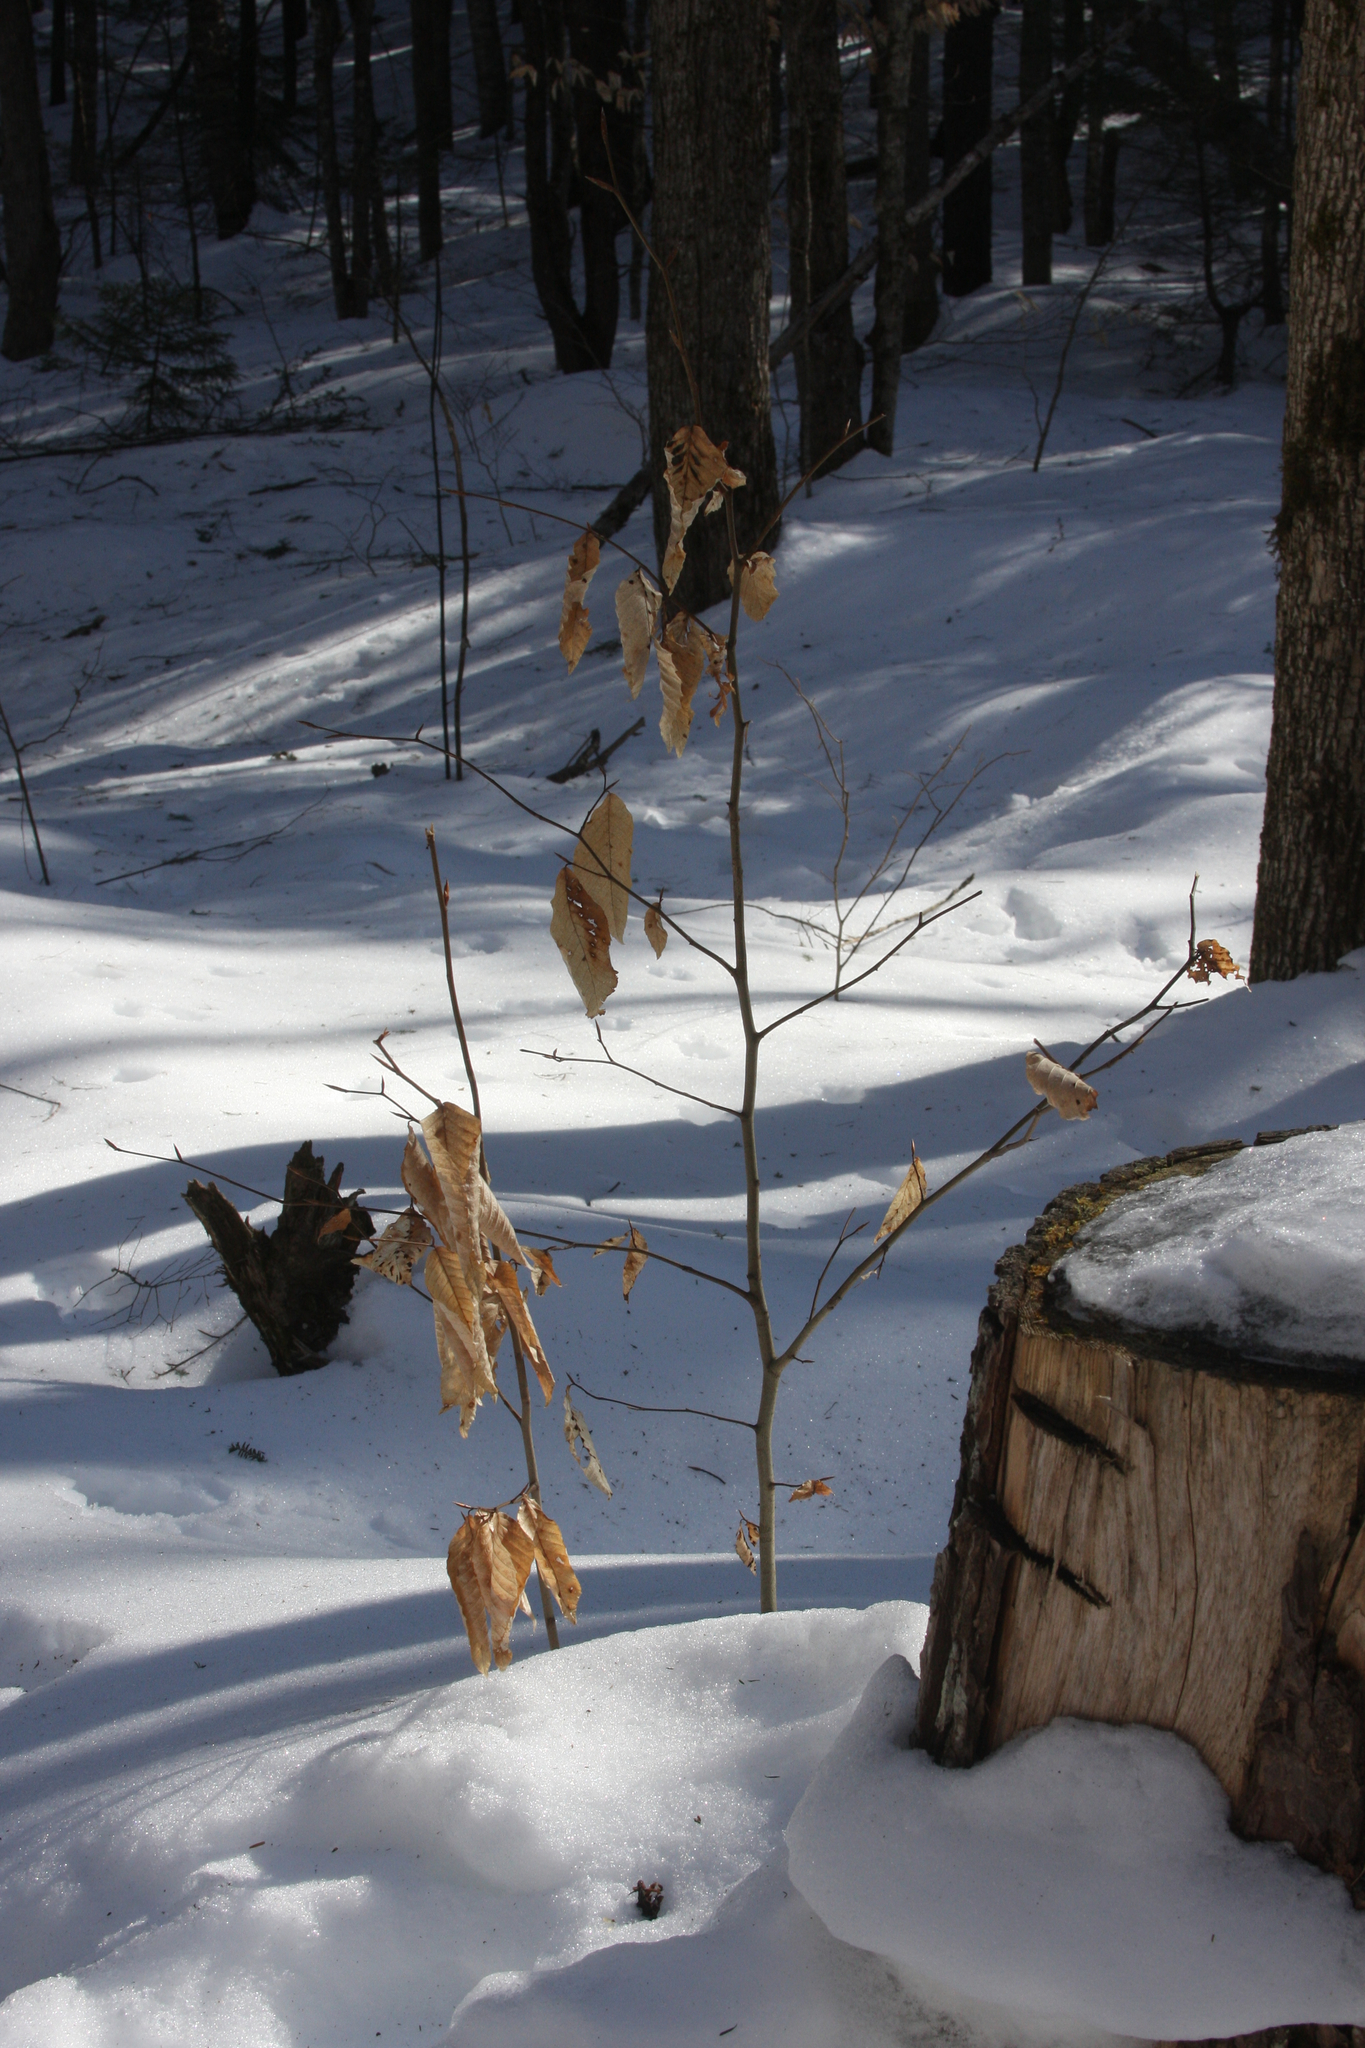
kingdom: Plantae
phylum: Tracheophyta
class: Magnoliopsida
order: Fagales
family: Fagaceae
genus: Fagus
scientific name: Fagus grandifolia
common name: American beech
